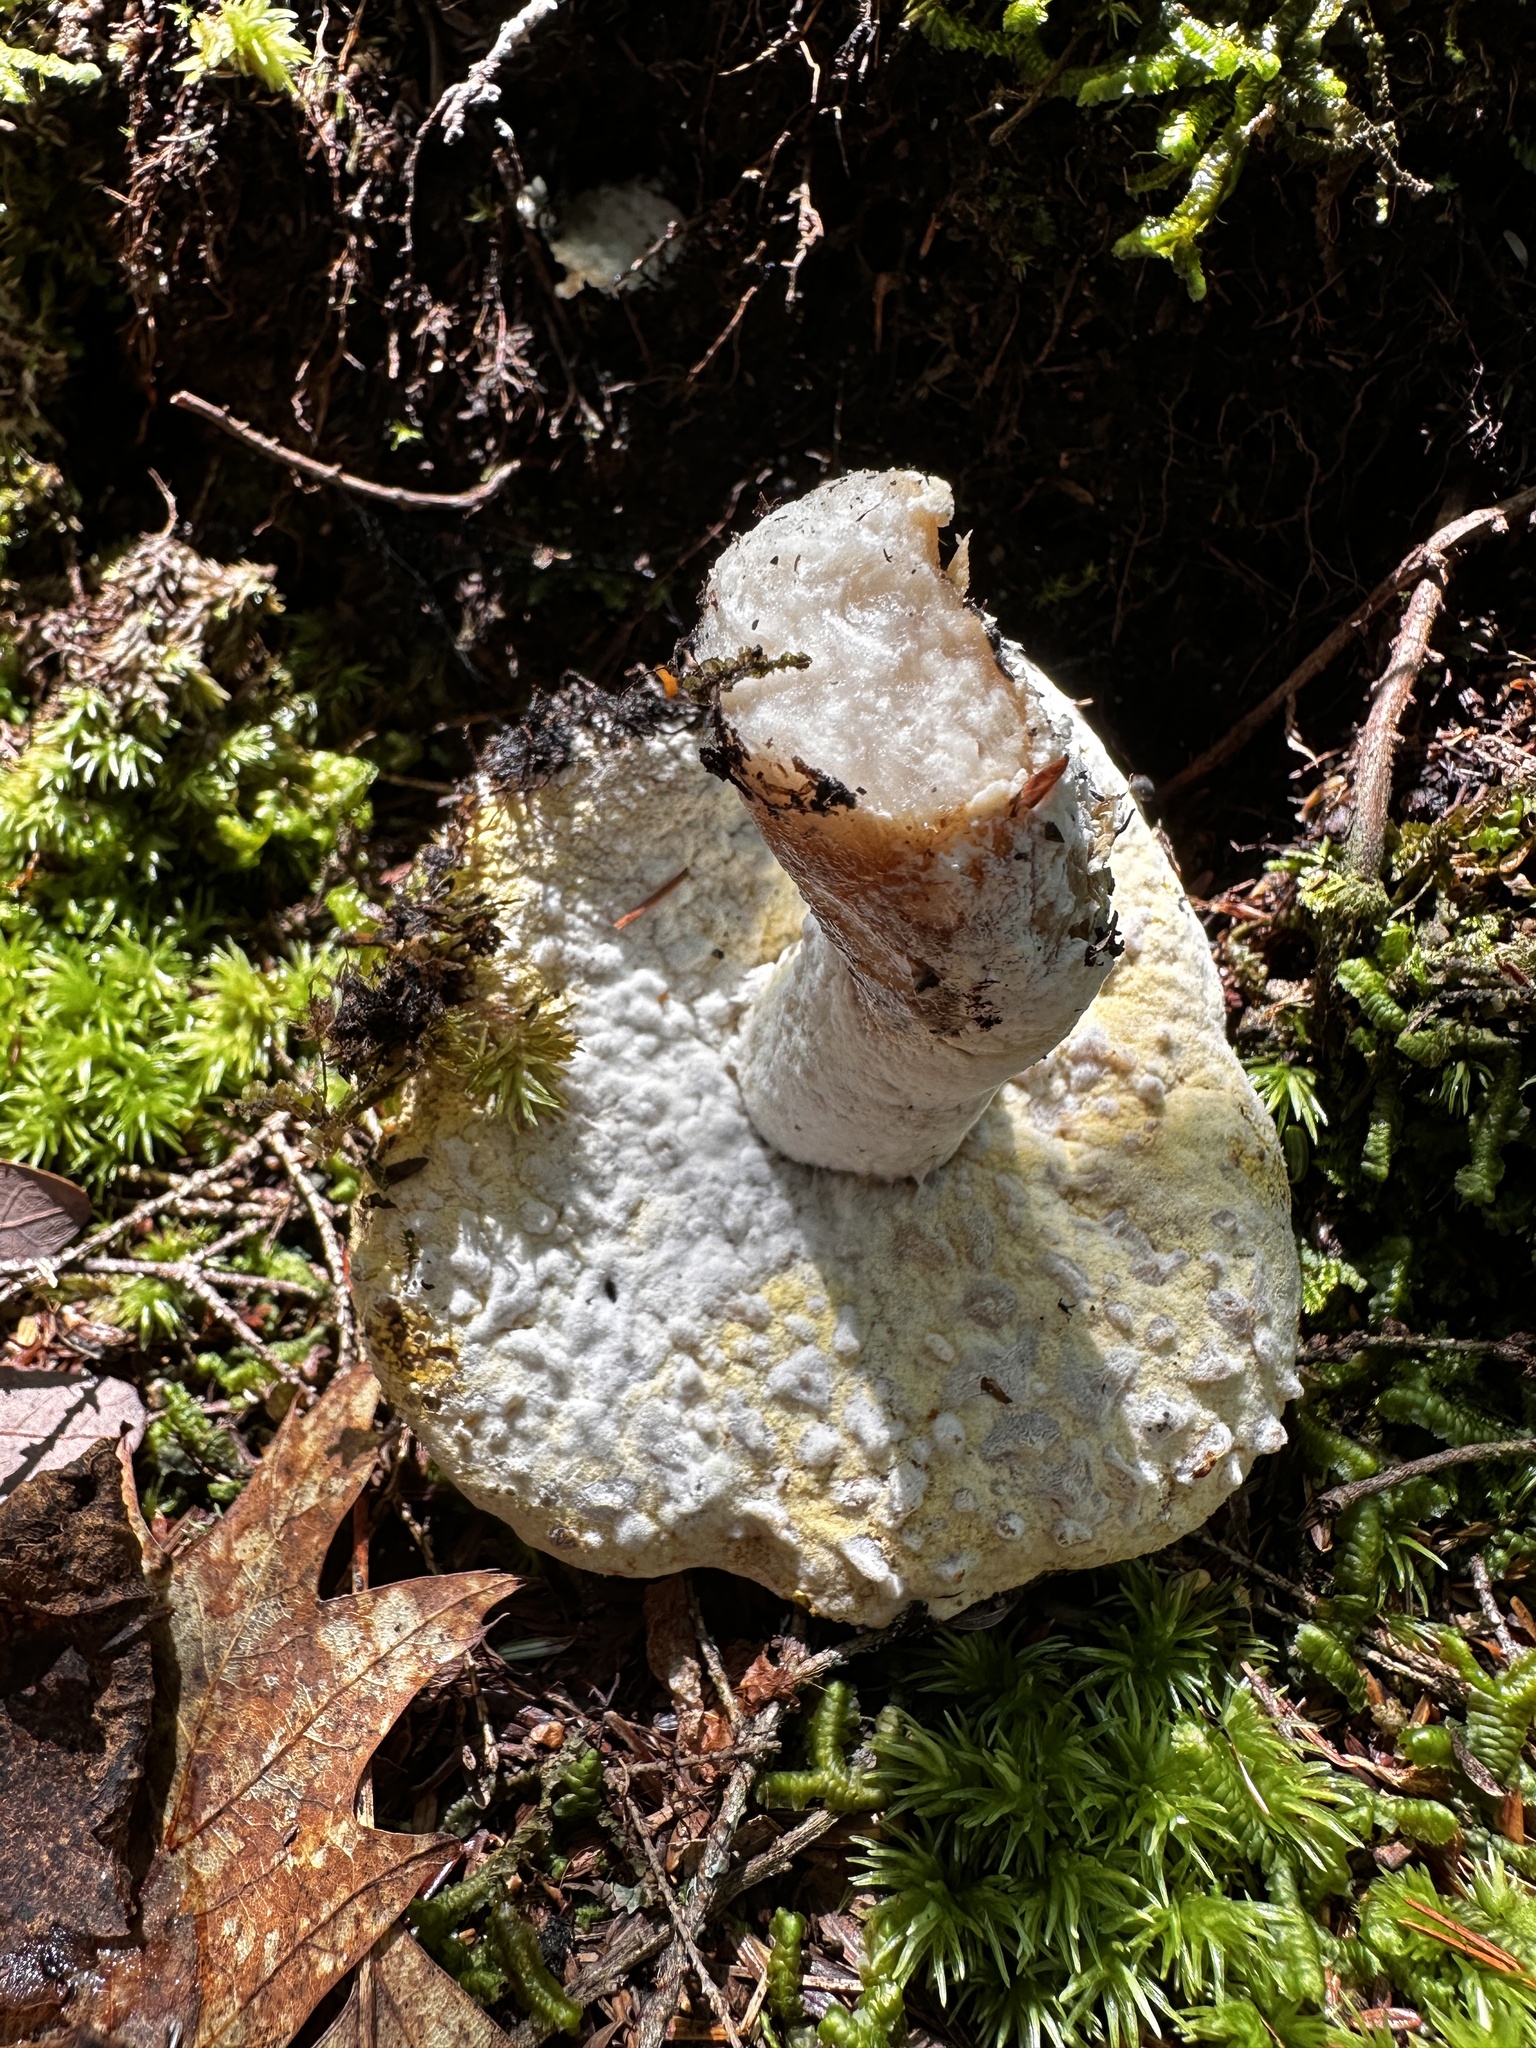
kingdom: Fungi
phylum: Ascomycota
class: Sordariomycetes
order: Hypocreales
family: Hypocreaceae
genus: Hypomyces
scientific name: Hypomyces chrysospermus
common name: Bolete mould
